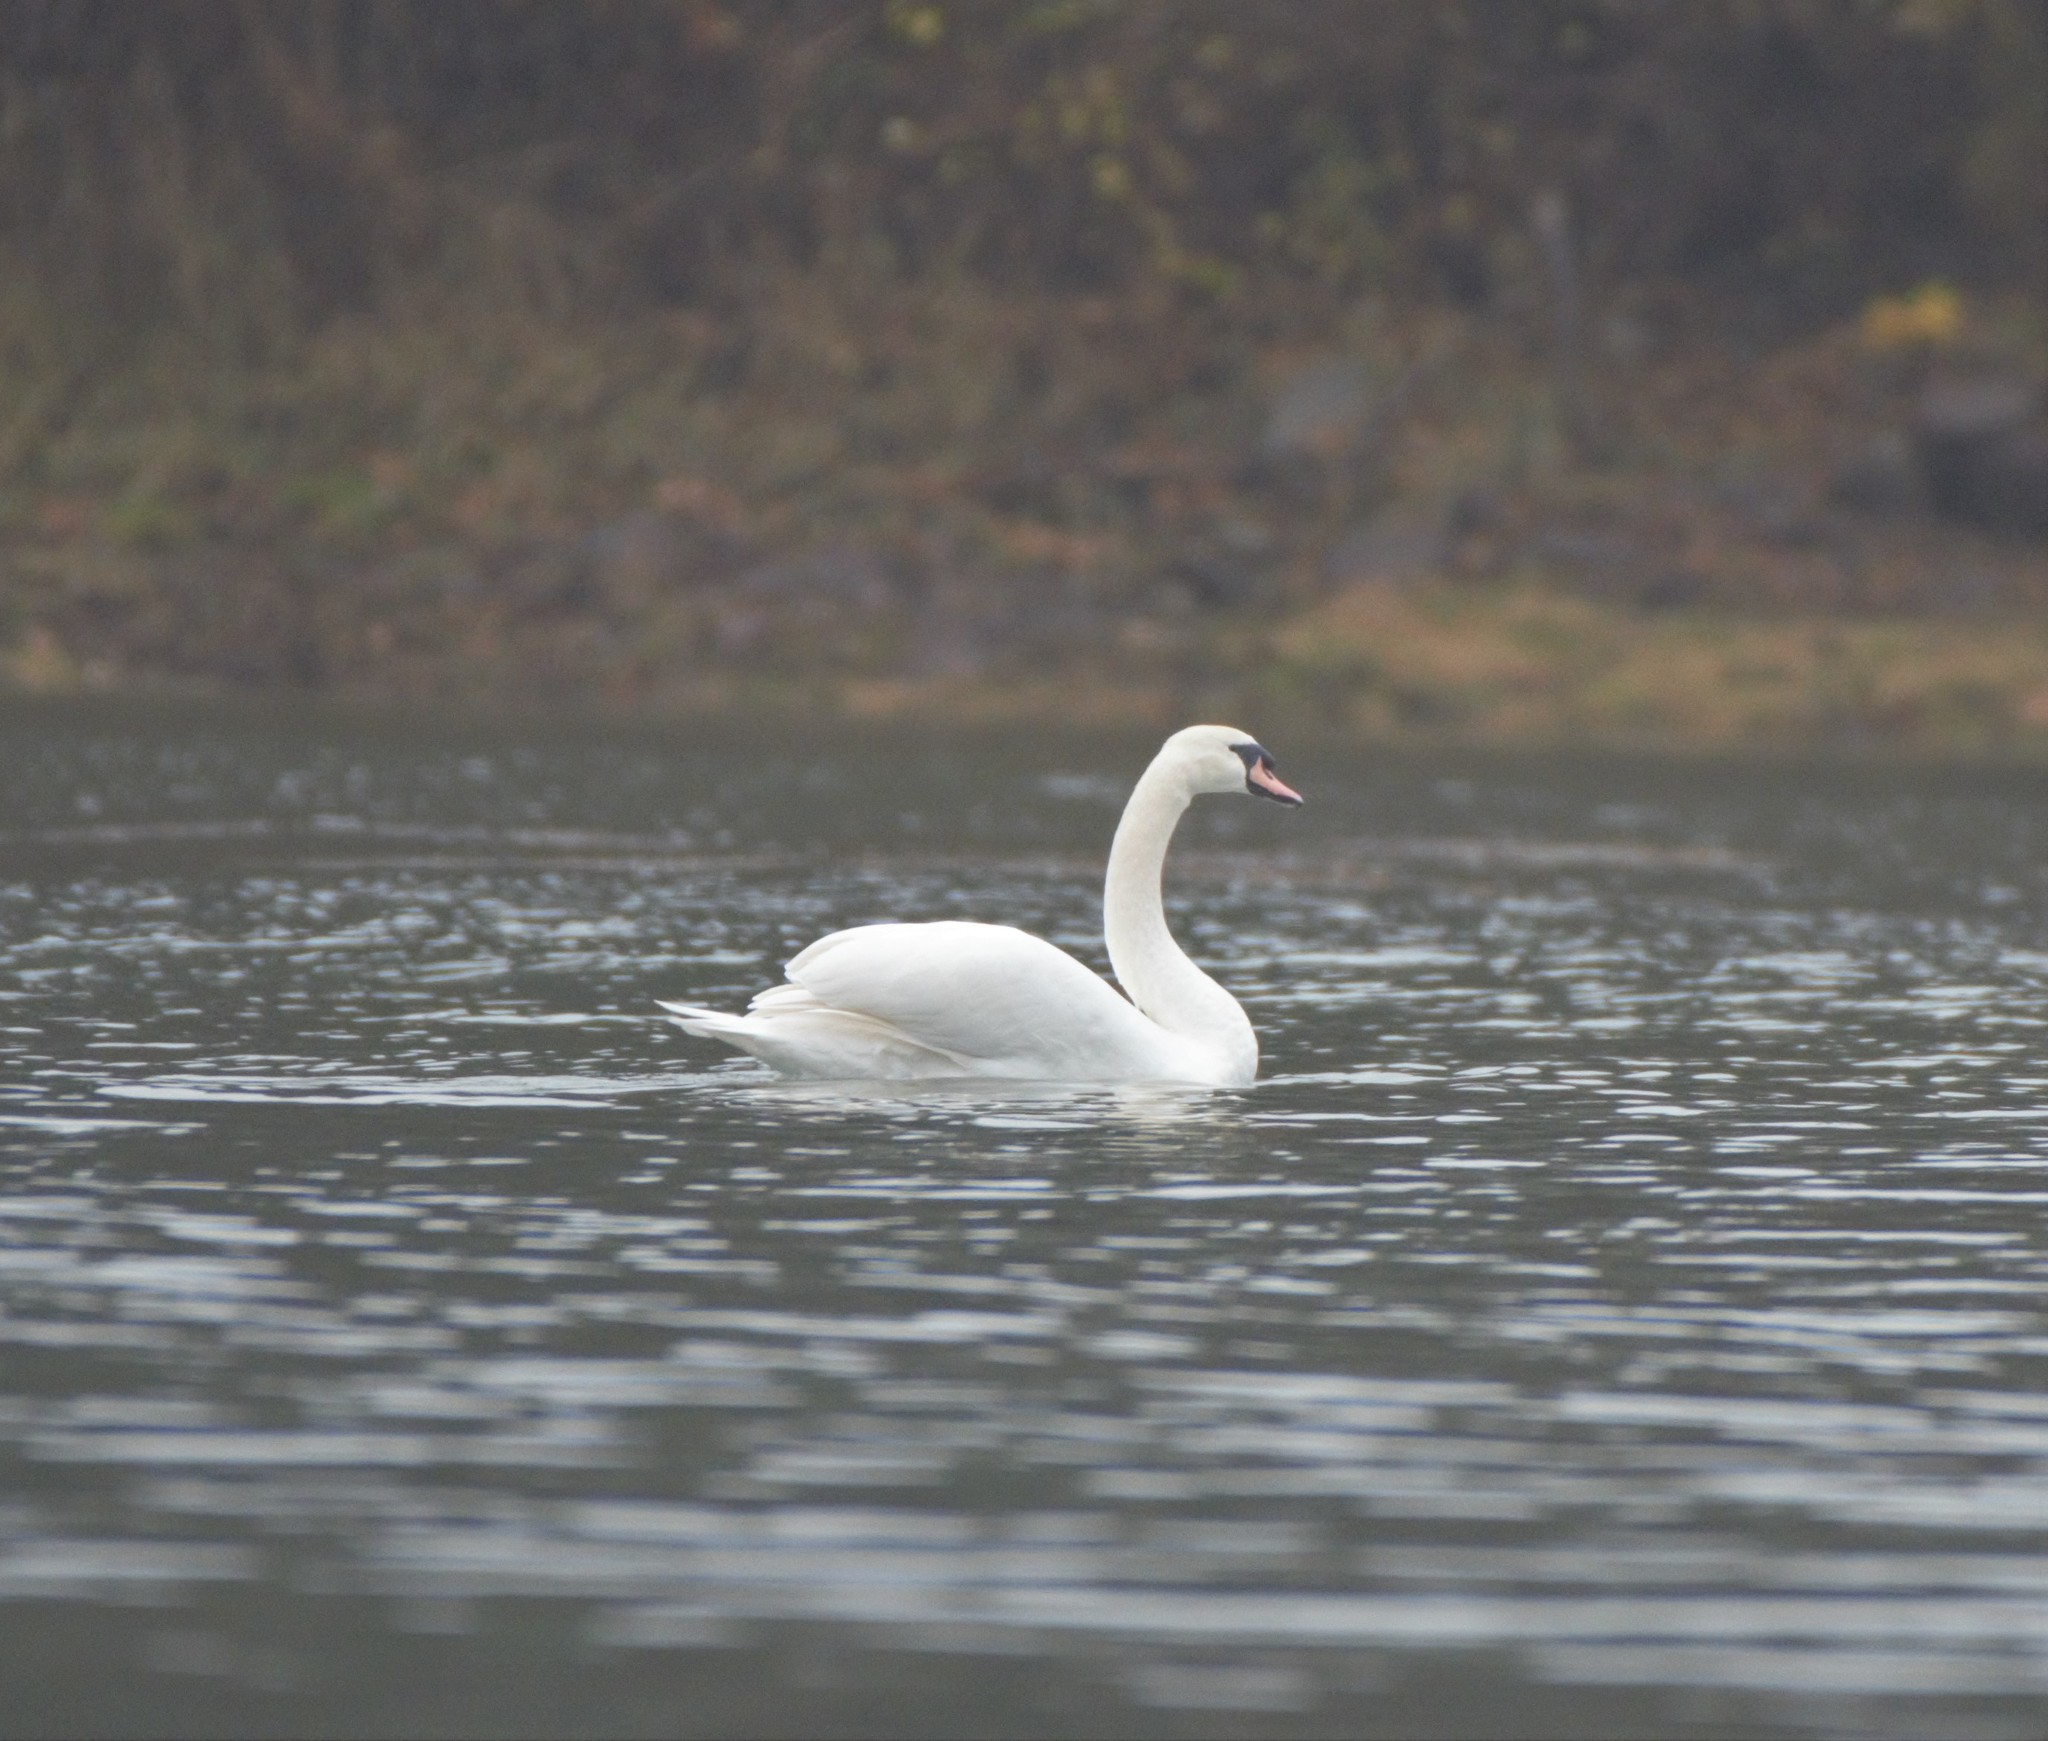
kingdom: Animalia
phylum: Chordata
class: Aves
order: Anseriformes
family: Anatidae
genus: Cygnus
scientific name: Cygnus olor
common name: Mute swan
